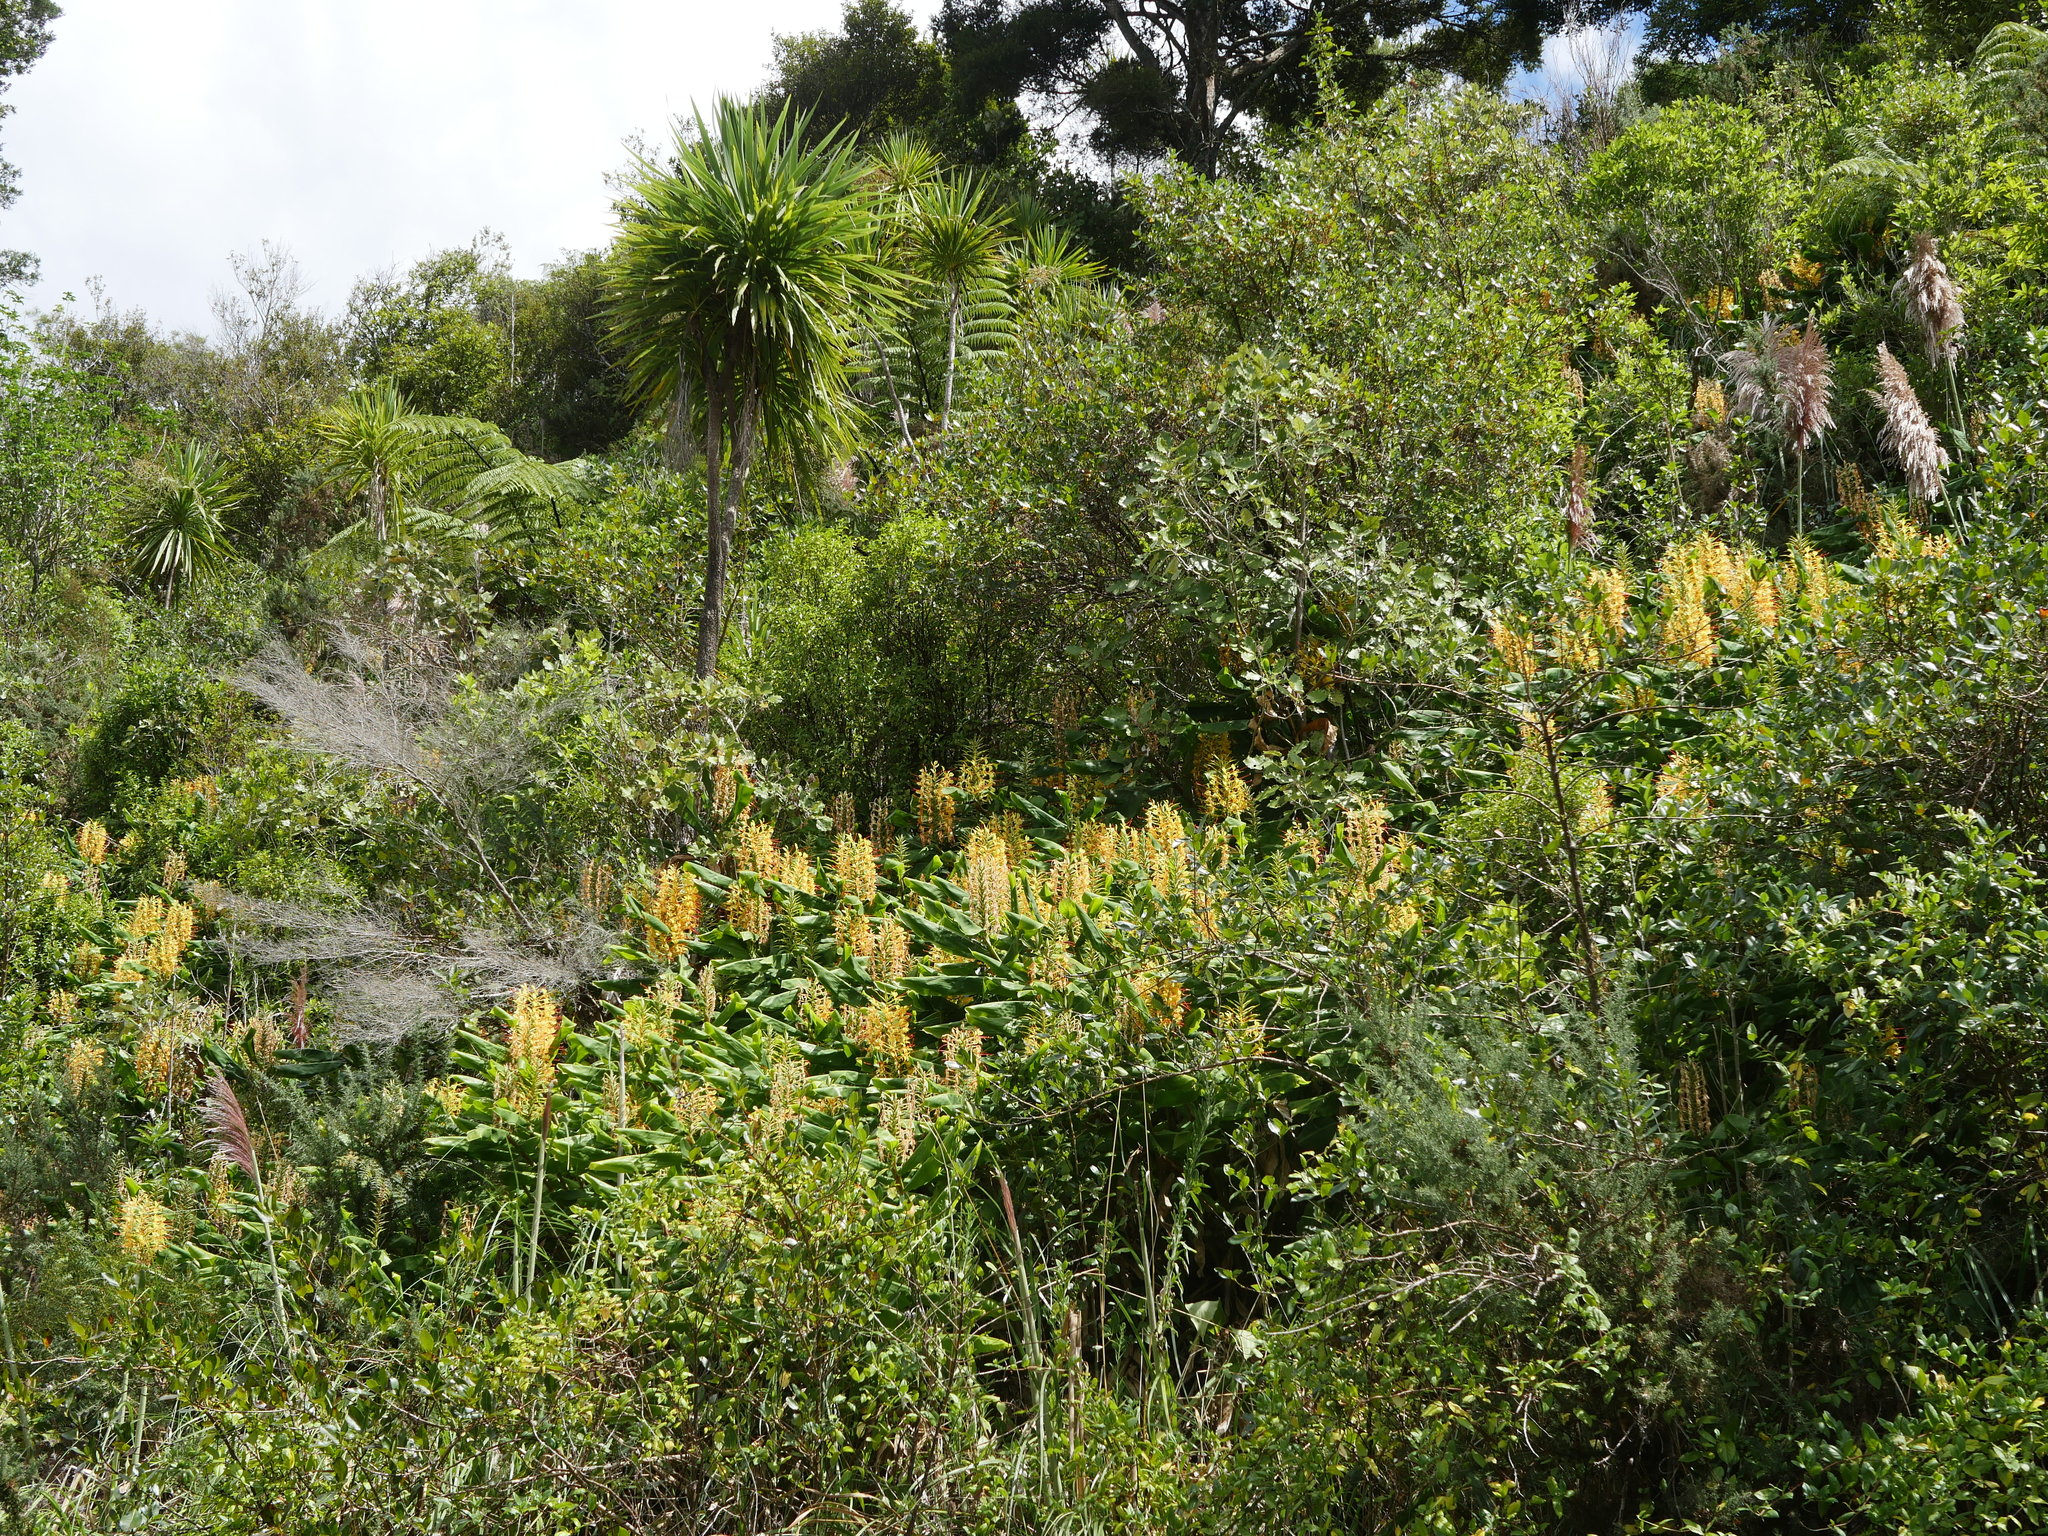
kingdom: Plantae
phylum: Tracheophyta
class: Liliopsida
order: Zingiberales
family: Zingiberaceae
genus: Hedychium
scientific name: Hedychium gardnerianum
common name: Himalayan ginger
